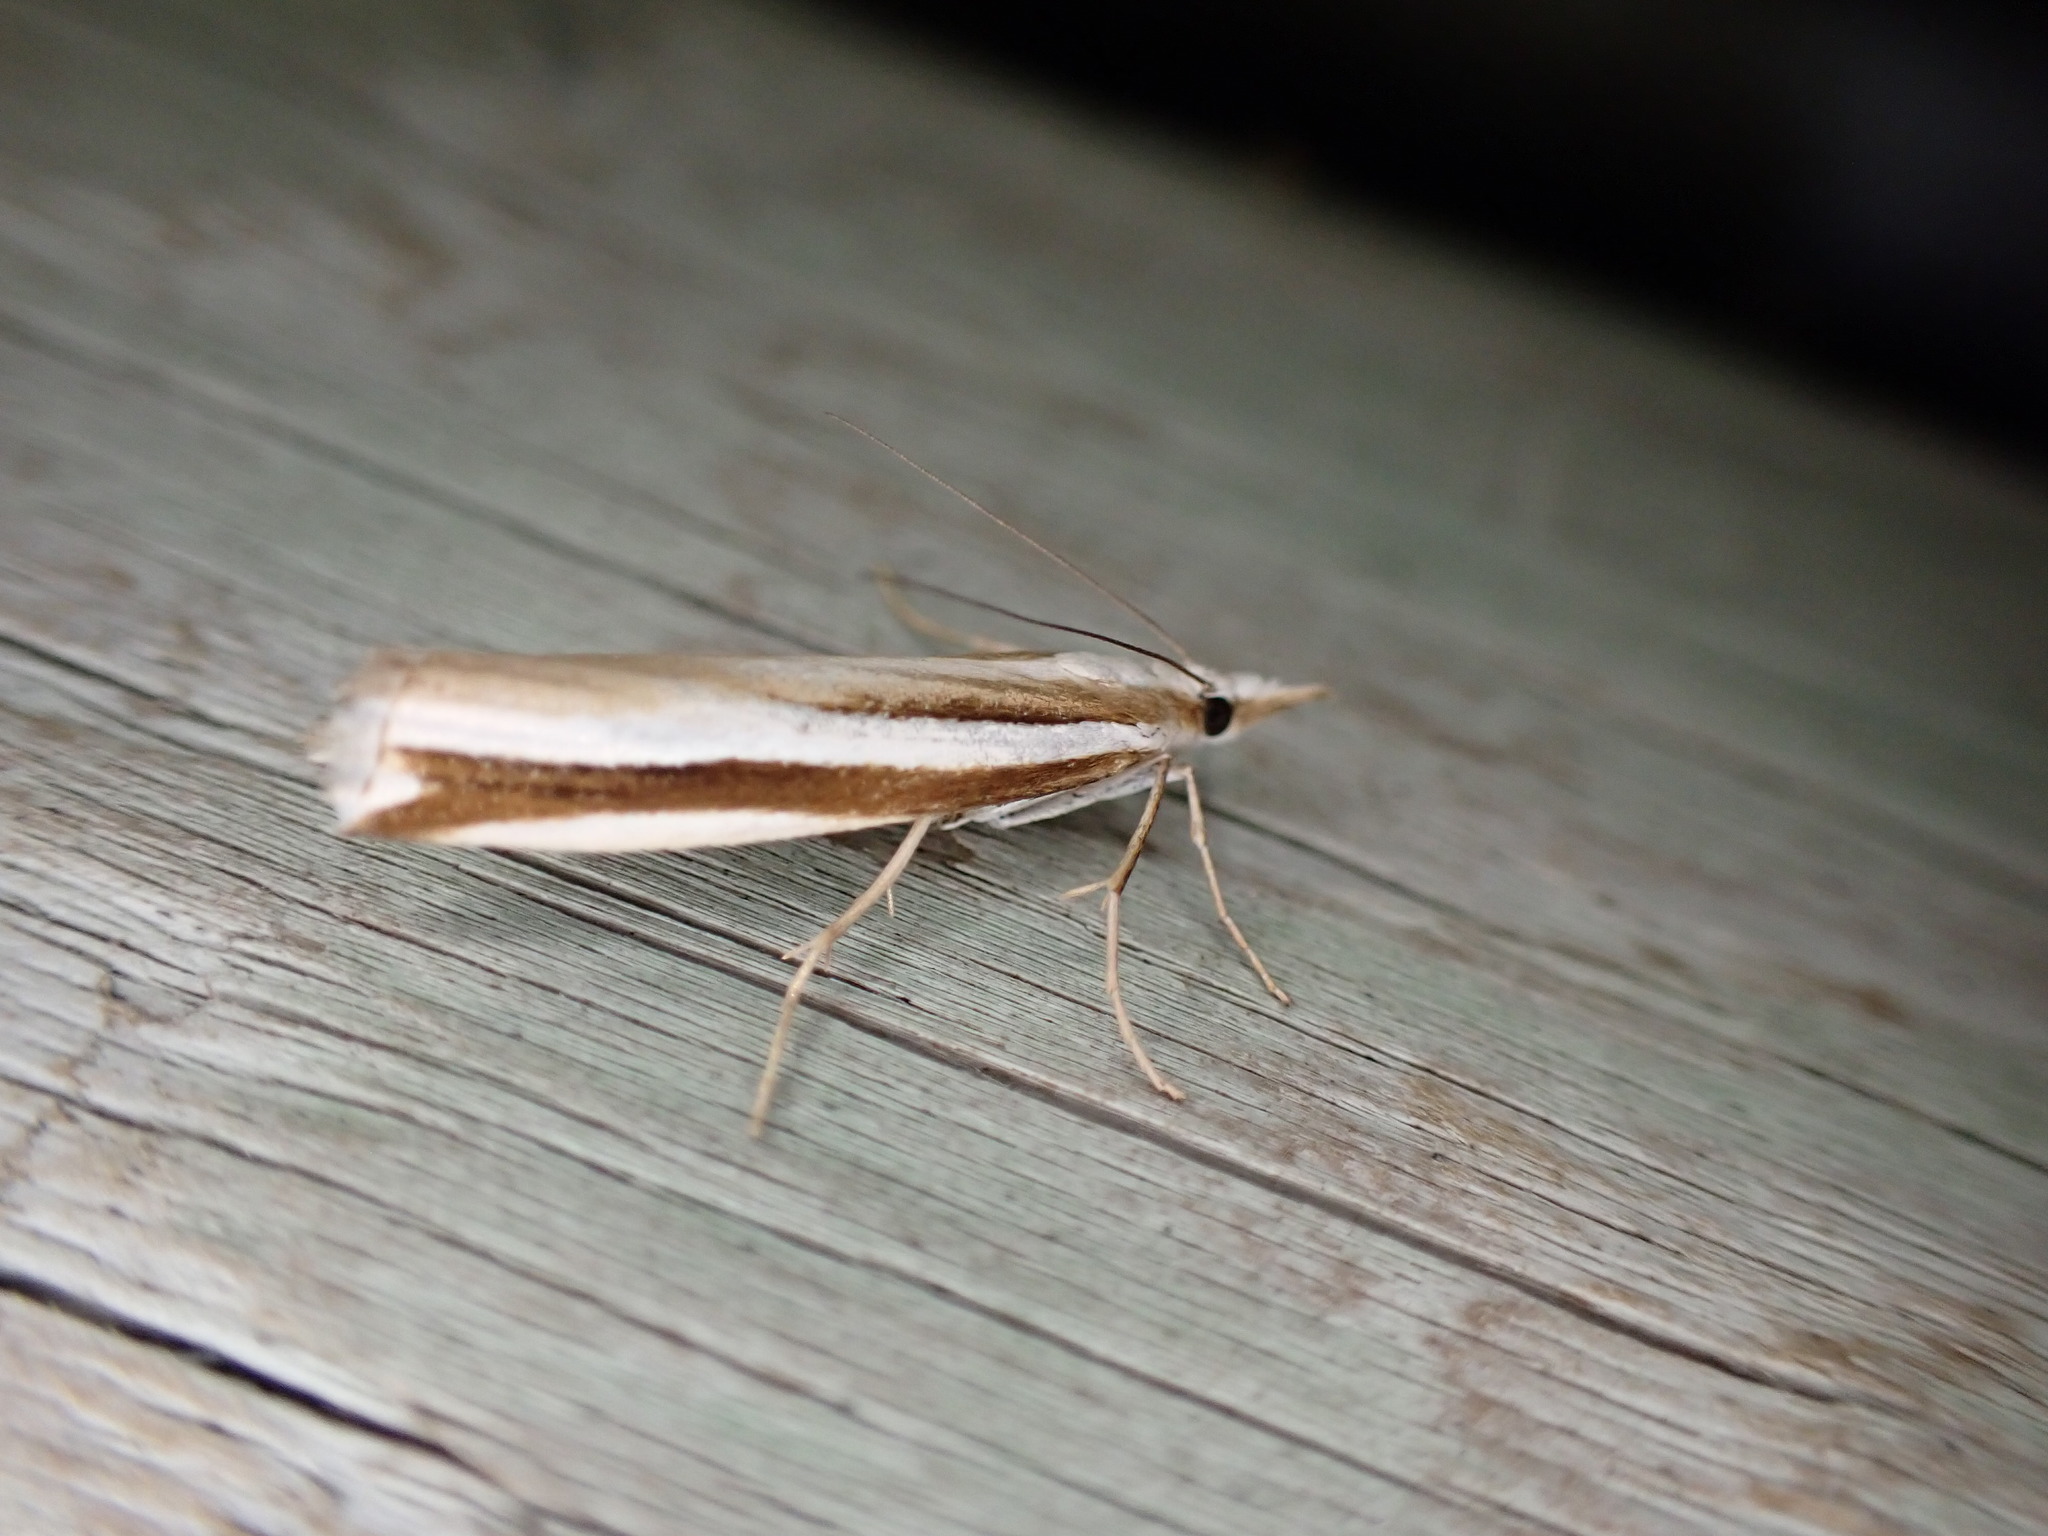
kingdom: Animalia
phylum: Arthropoda
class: Insecta
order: Lepidoptera
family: Crambidae
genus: Orocrambus
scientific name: Orocrambus apicellus
